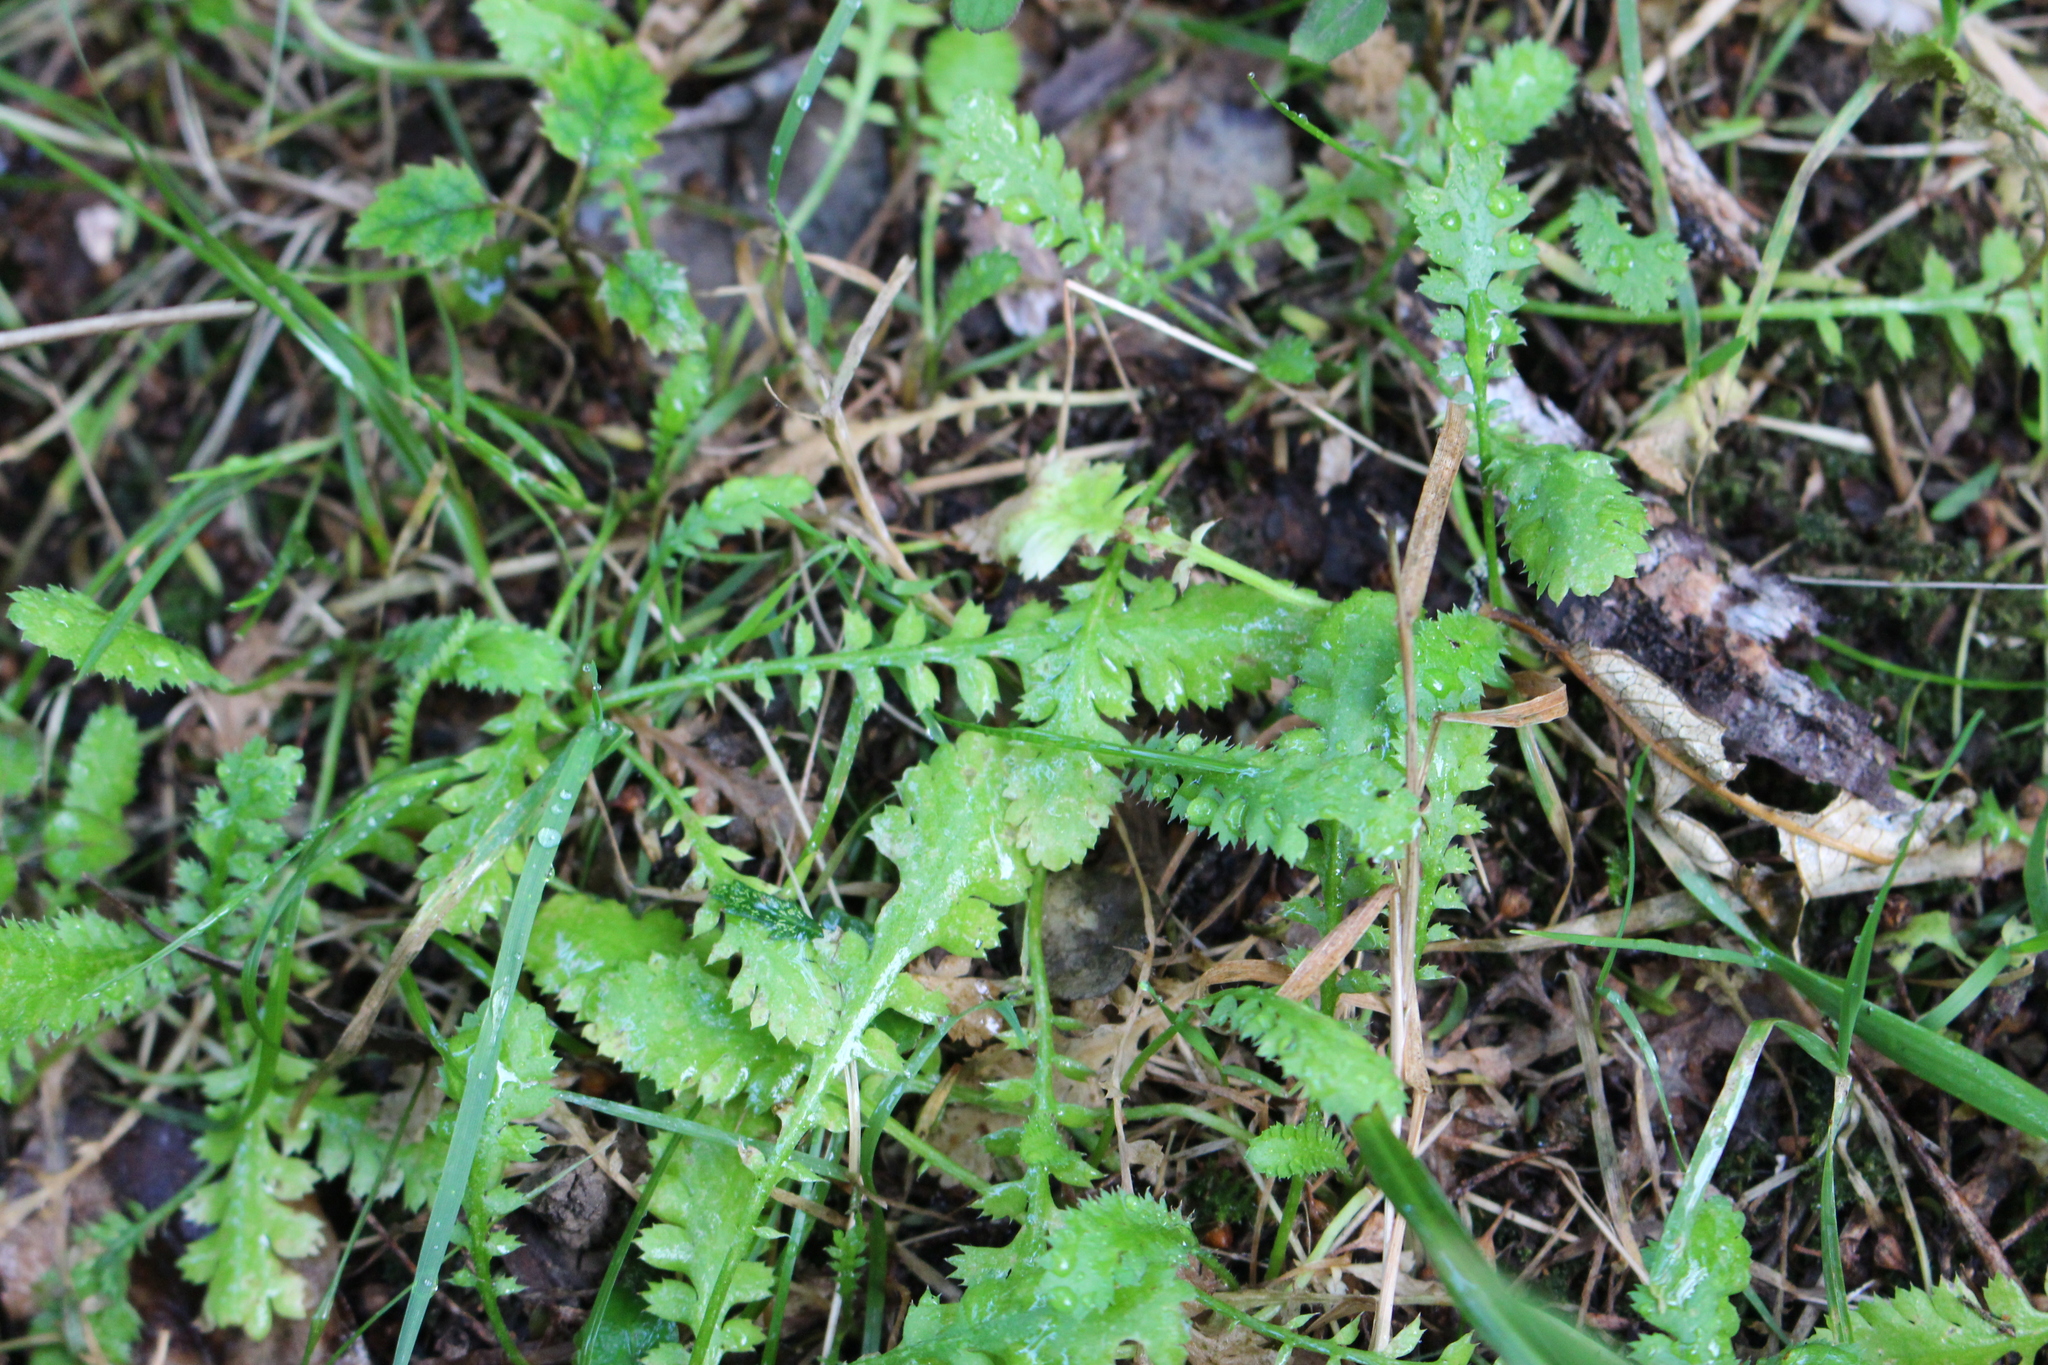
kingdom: Plantae
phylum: Tracheophyta
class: Magnoliopsida
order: Asterales
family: Asteraceae
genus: Leptinella
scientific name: Leptinella squalida
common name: New zealand brass-buttons
